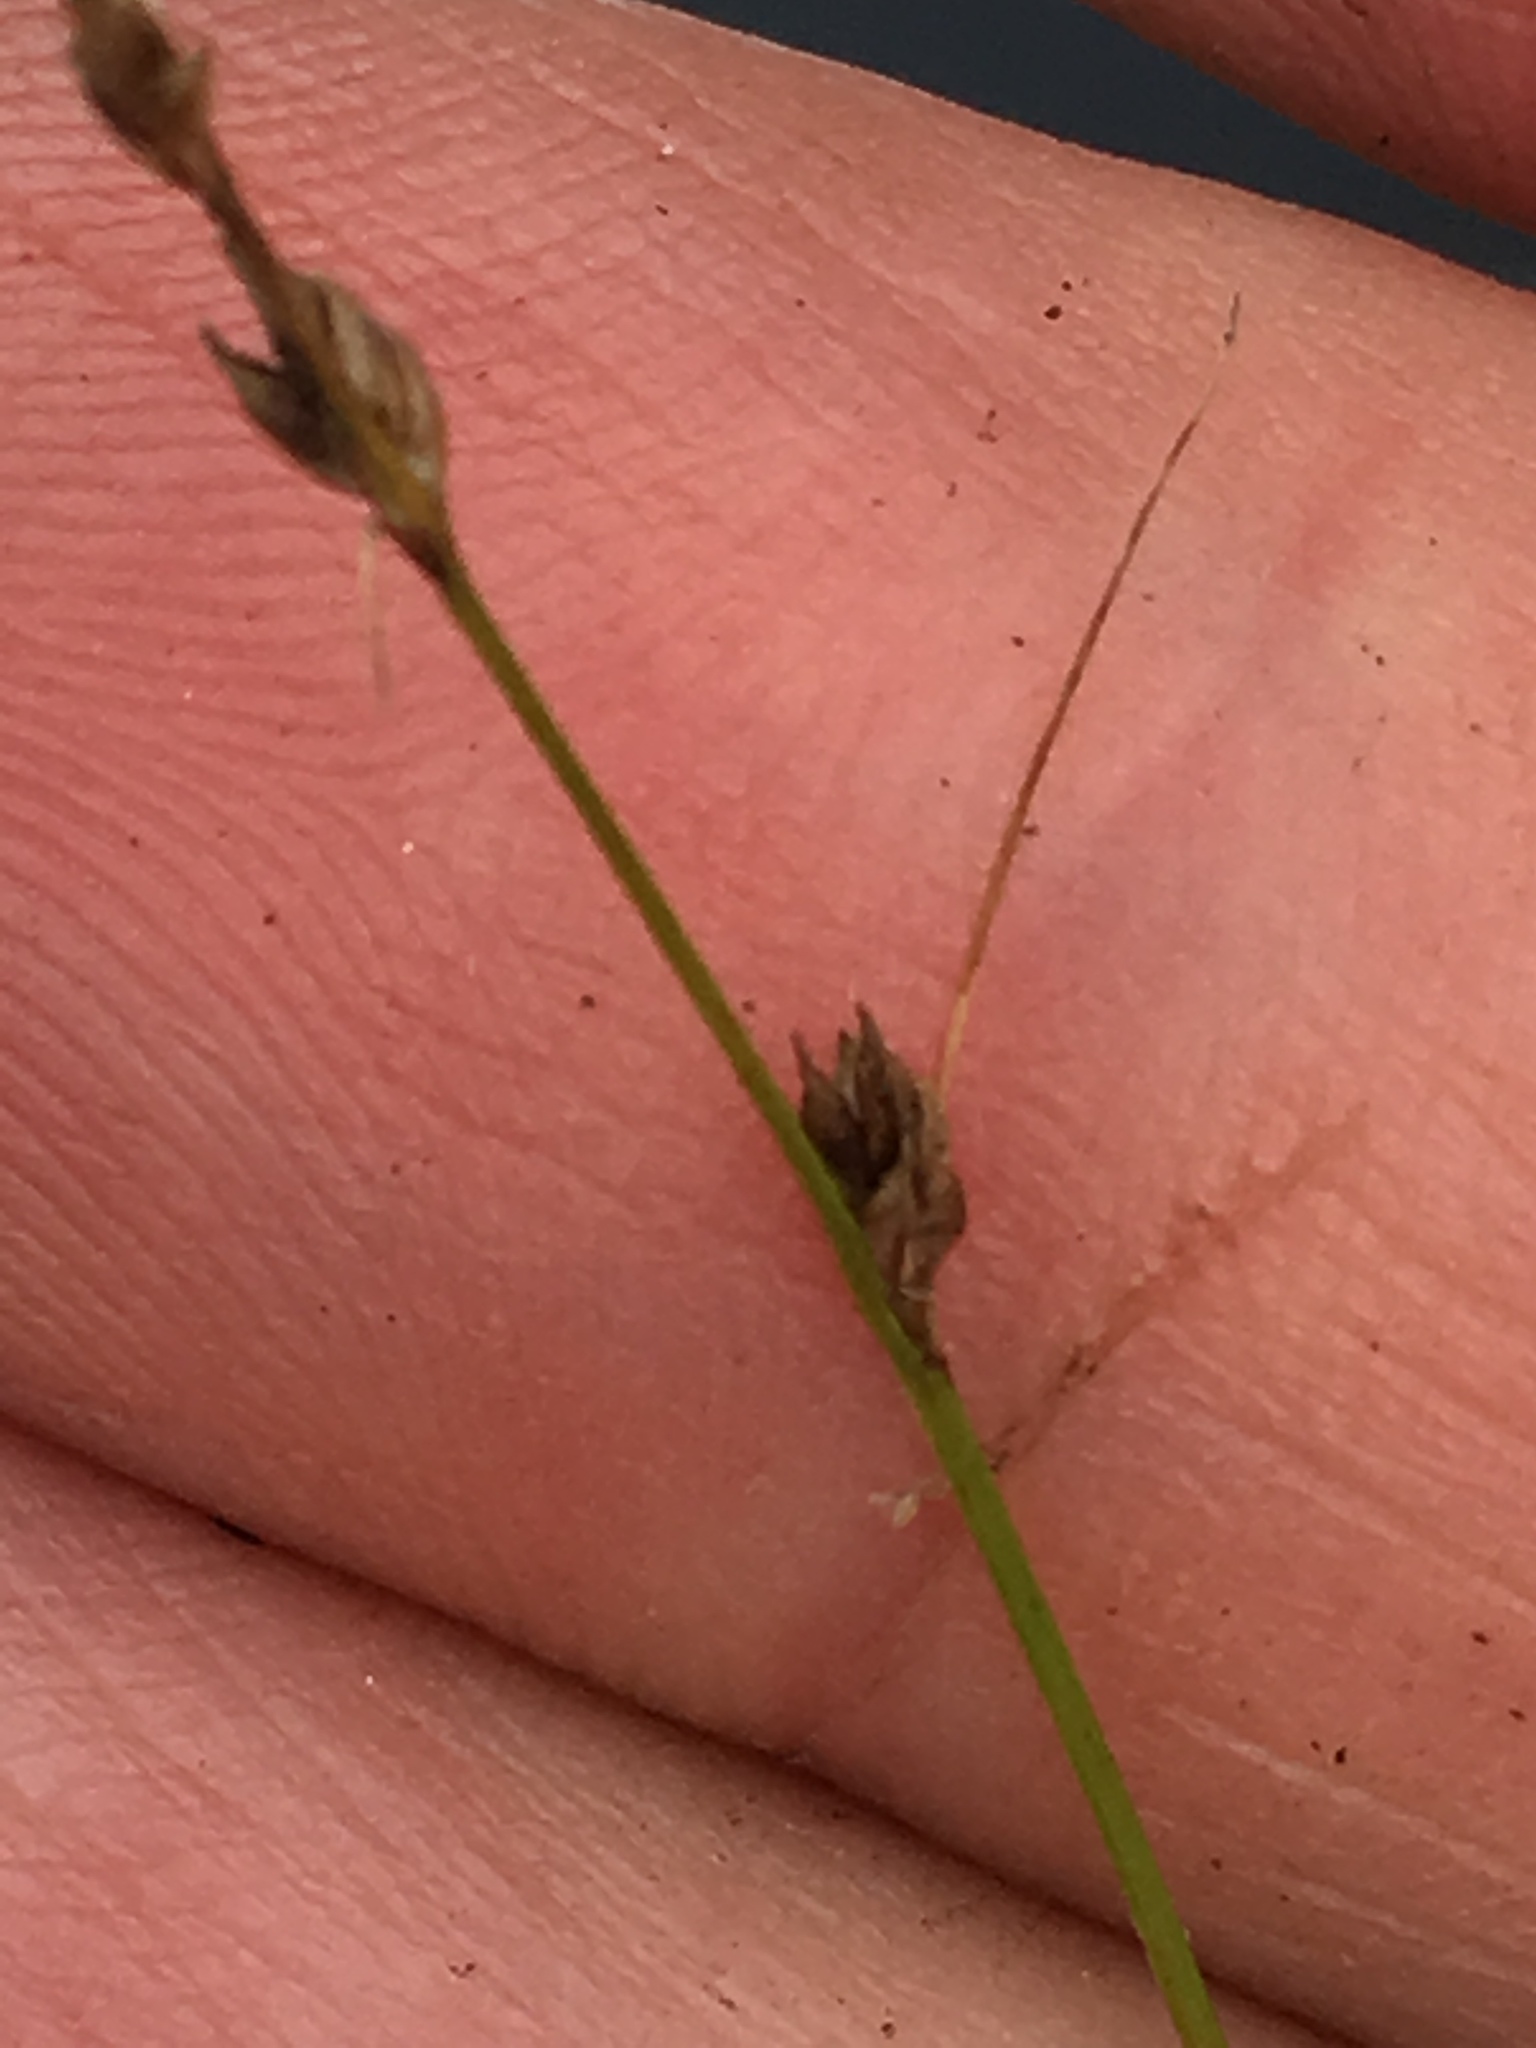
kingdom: Plantae
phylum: Tracheophyta
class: Liliopsida
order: Poales
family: Cyperaceae
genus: Carex
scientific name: Carex brunnescens
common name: Brown sedge
